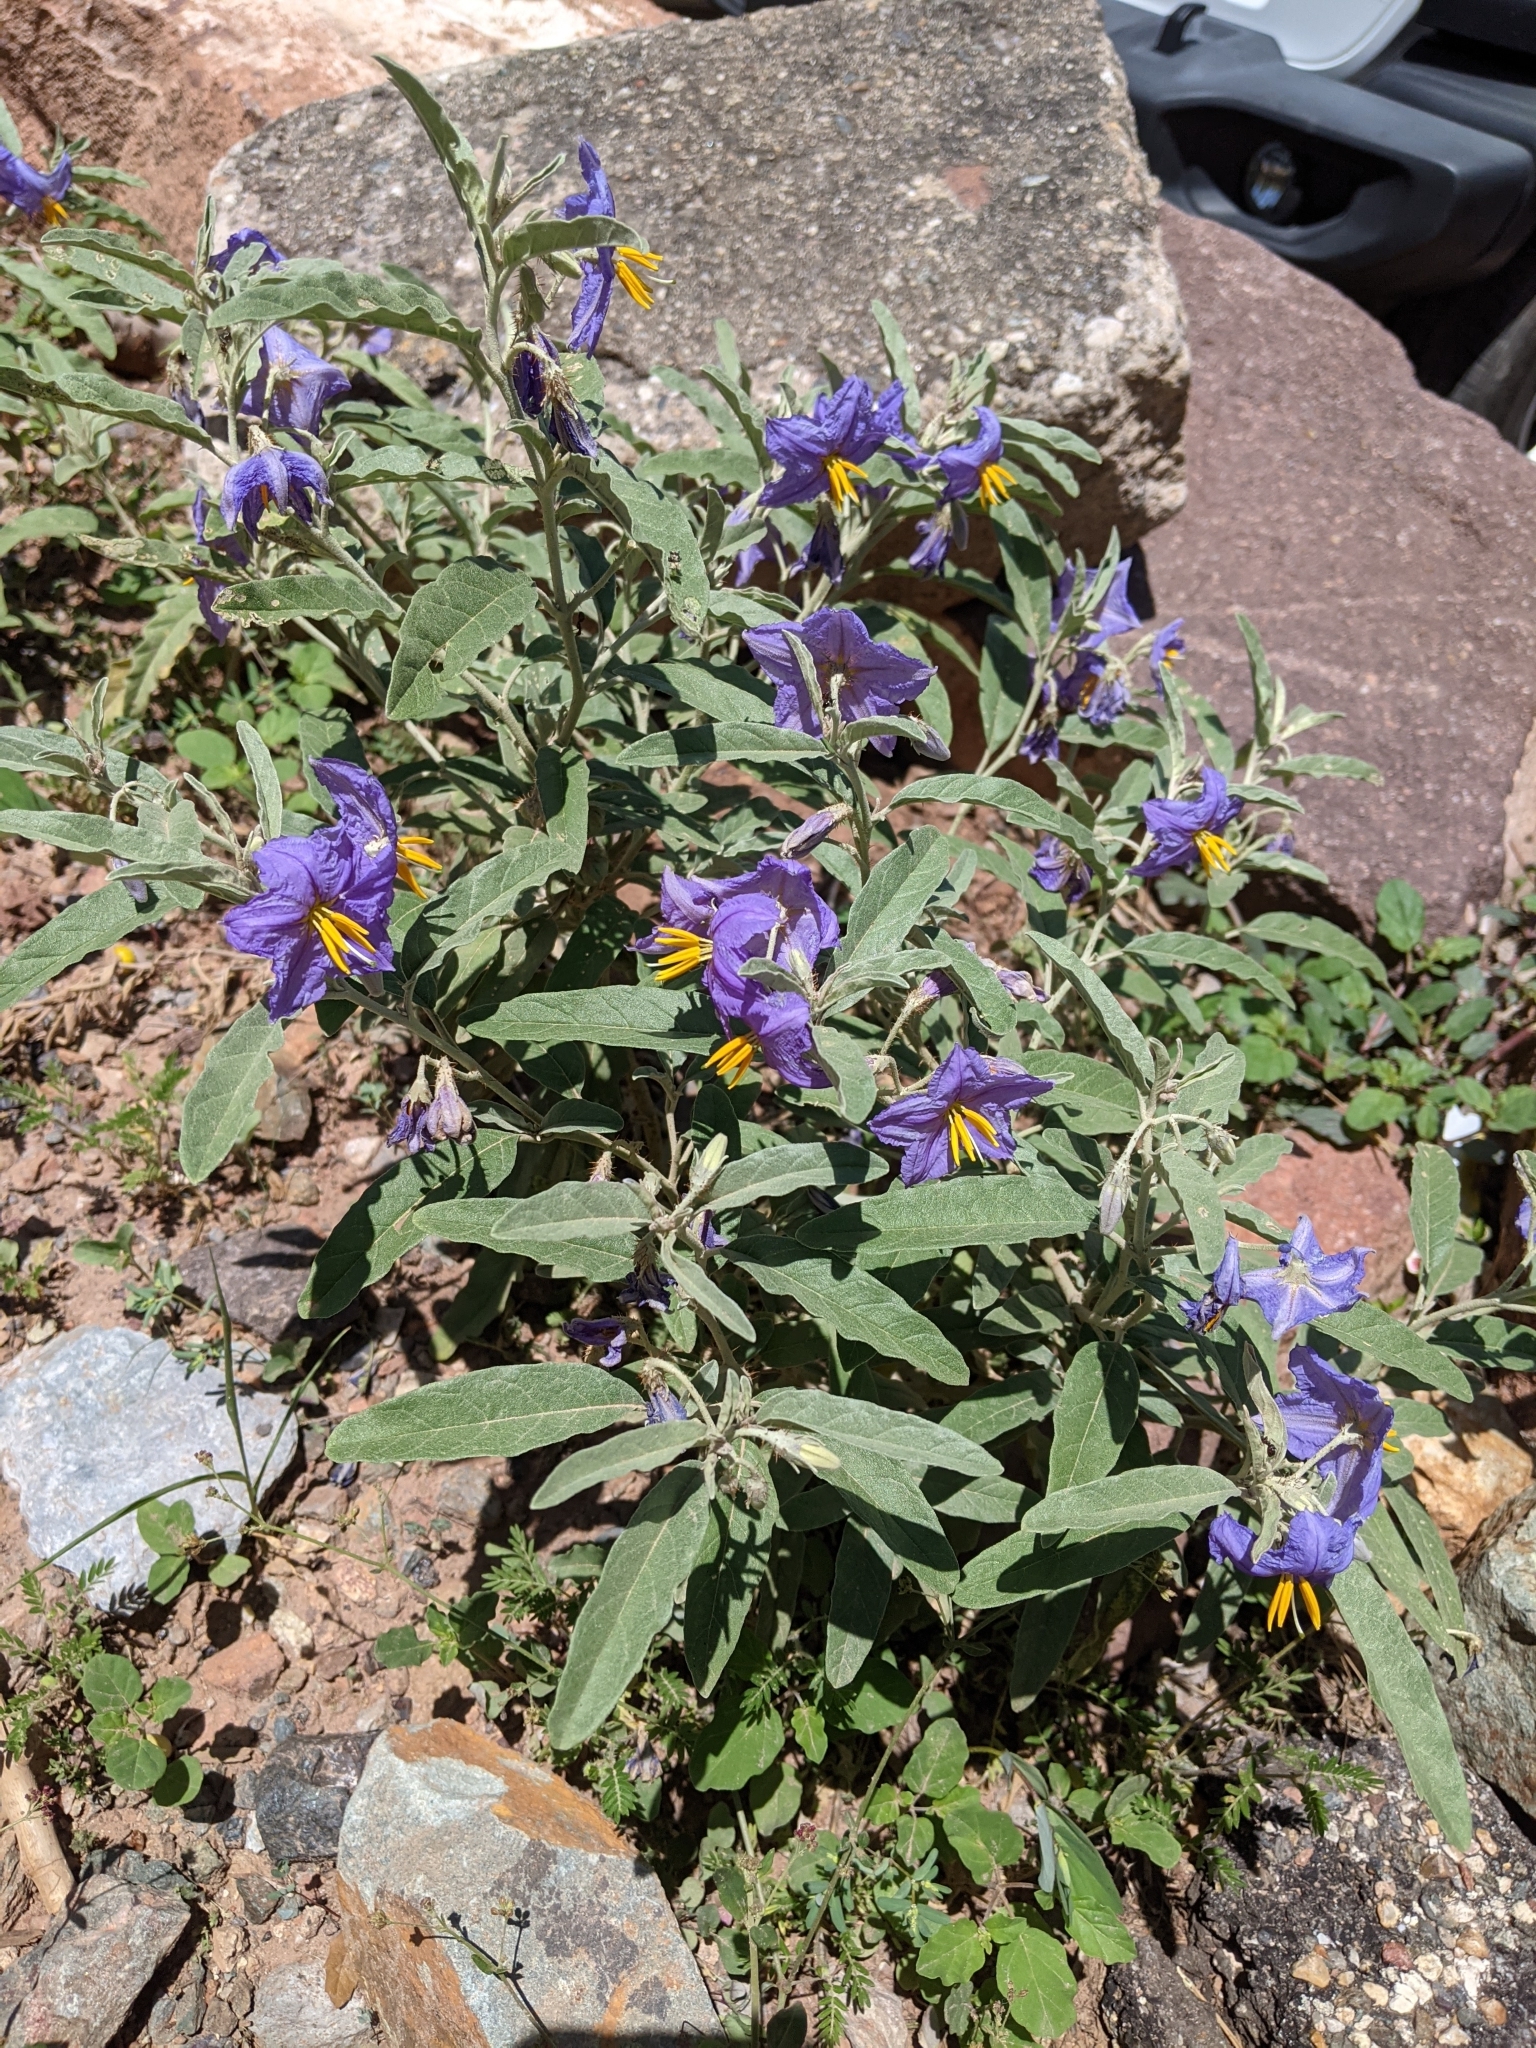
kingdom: Plantae
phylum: Tracheophyta
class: Magnoliopsida
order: Solanales
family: Solanaceae
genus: Solanum
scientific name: Solanum elaeagnifolium
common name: Silverleaf nightshade
